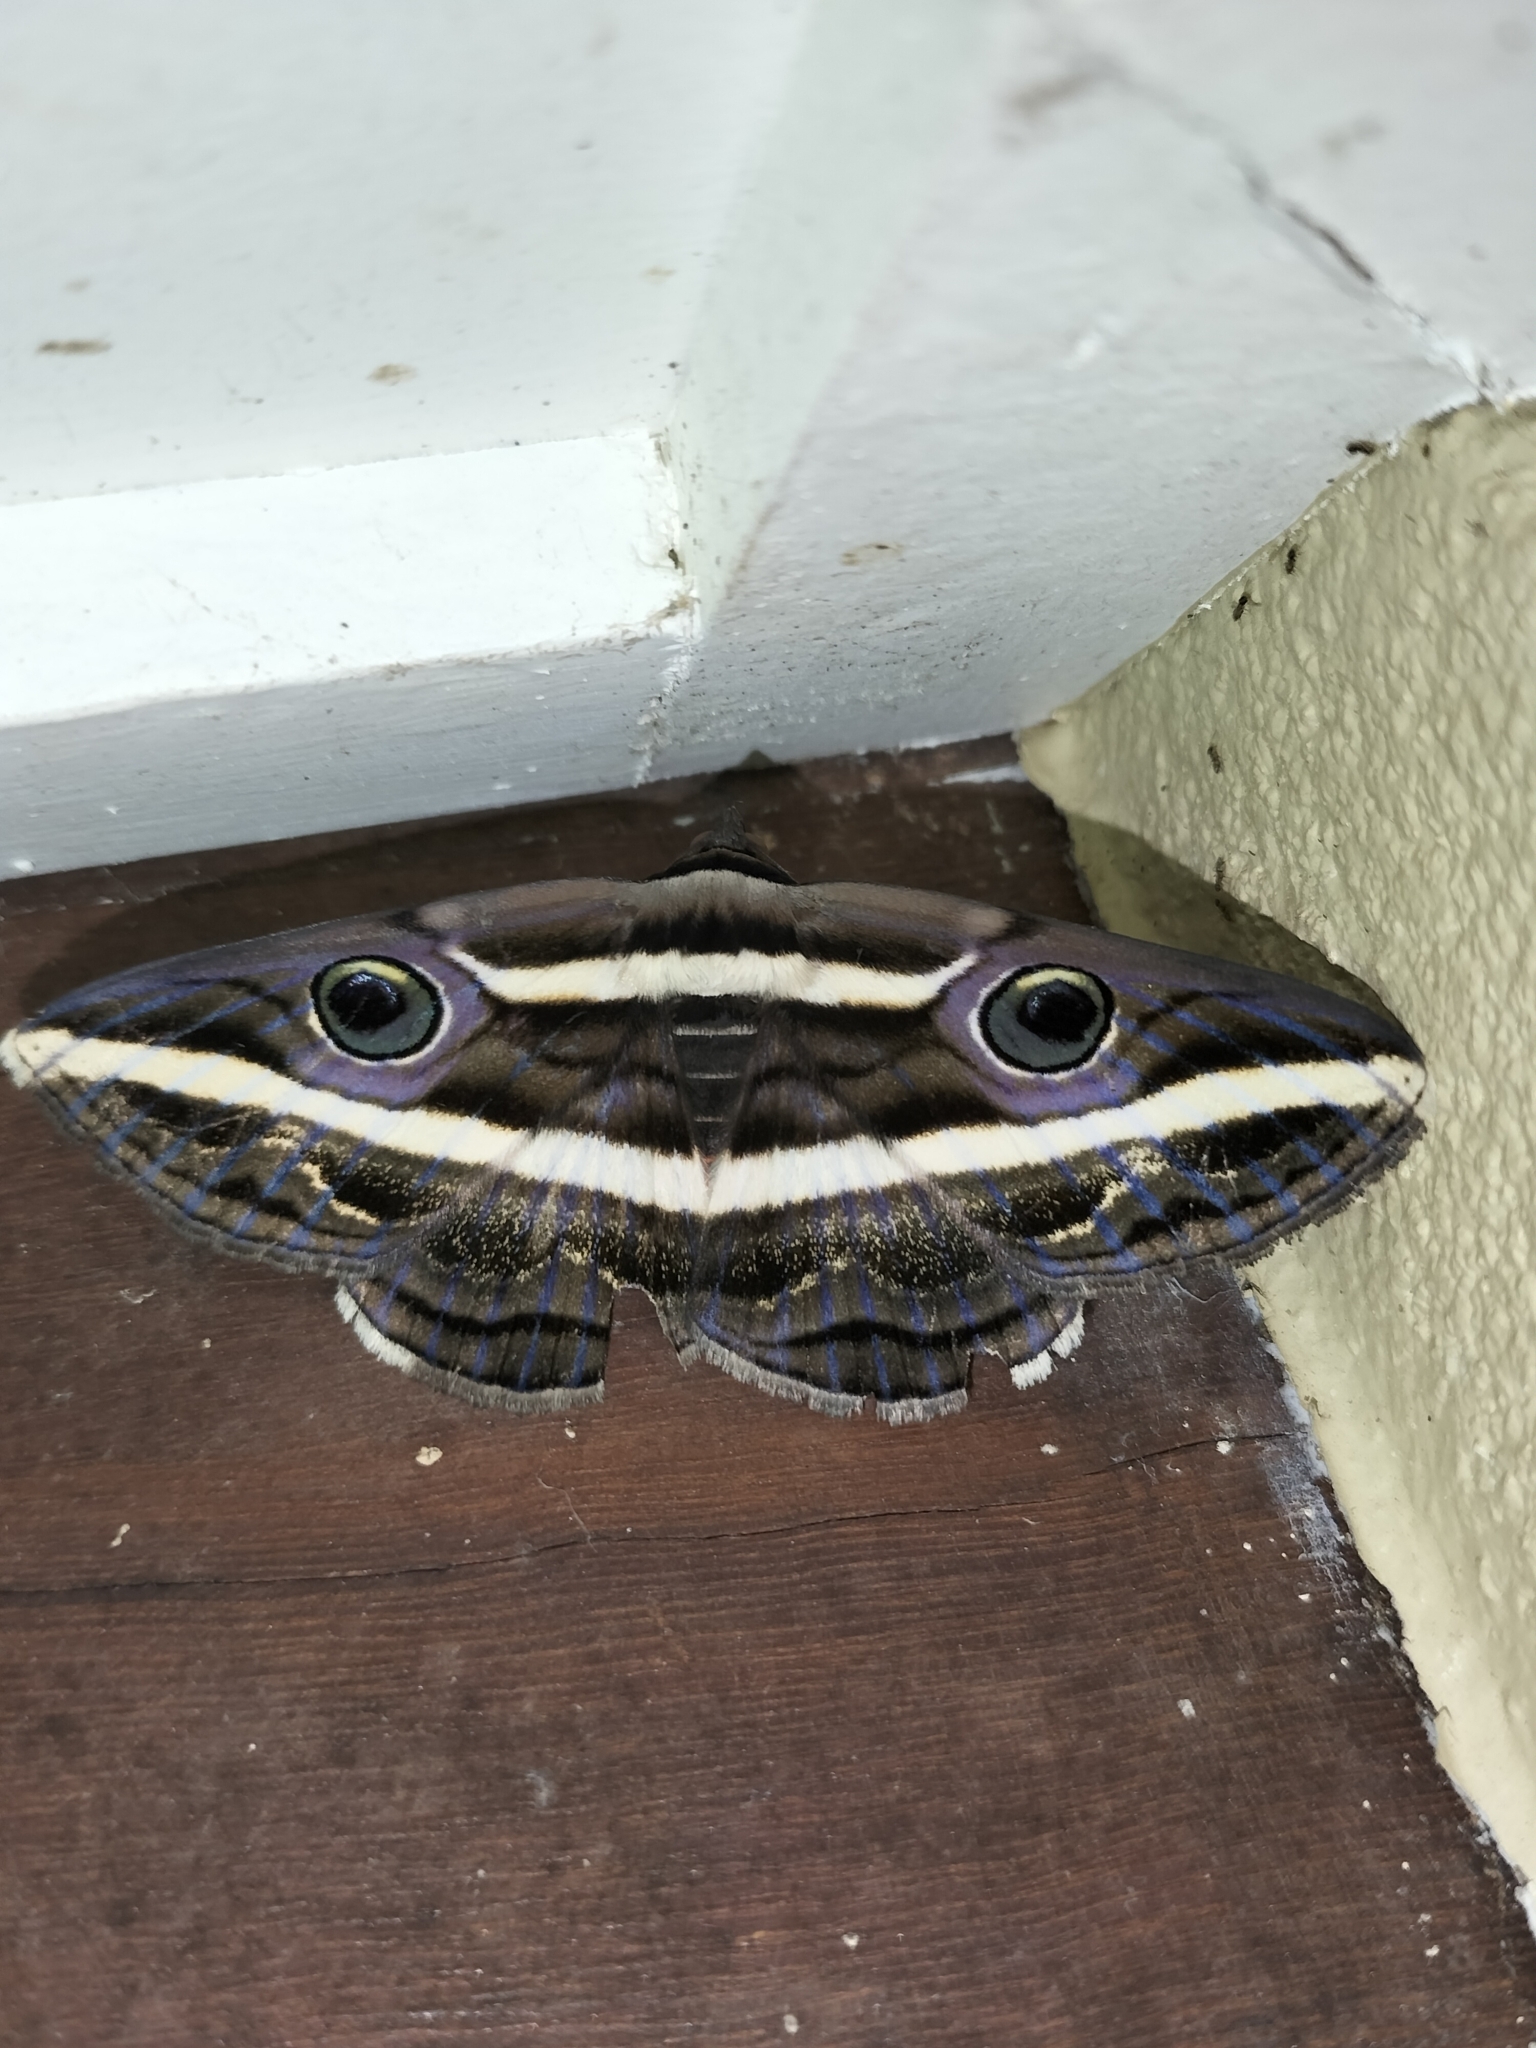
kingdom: Animalia
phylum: Arthropoda
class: Insecta
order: Lepidoptera
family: Erebidae
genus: Donuca
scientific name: Donuca rubropicta
